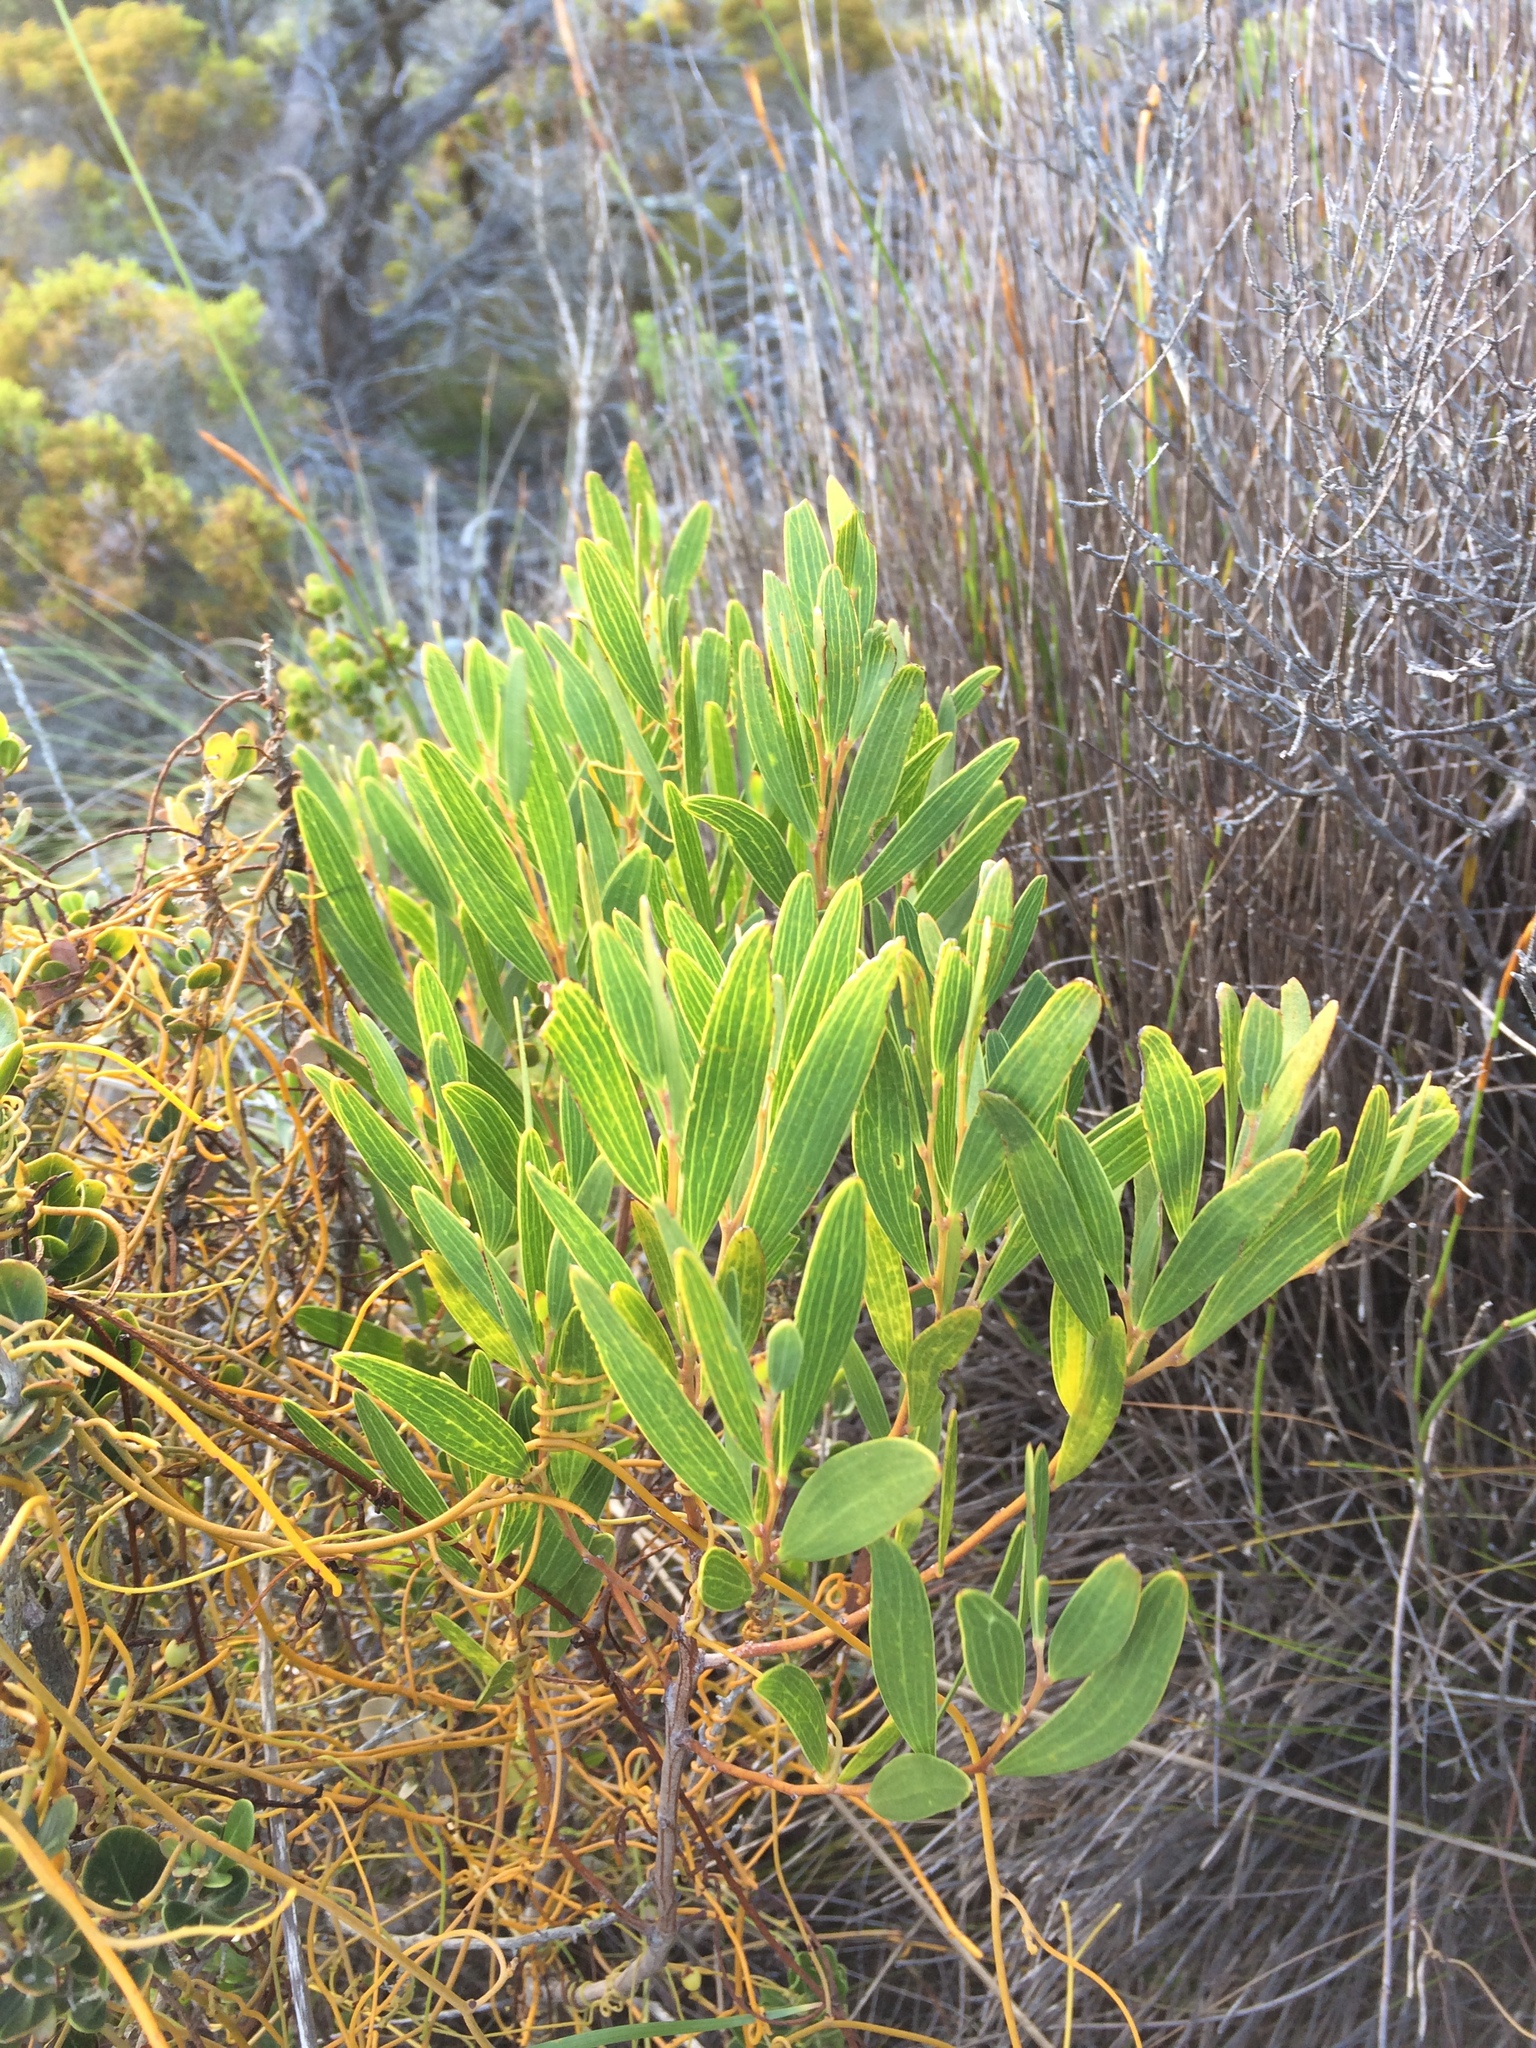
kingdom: Plantae
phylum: Tracheophyta
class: Magnoliopsida
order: Fabales
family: Fabaceae
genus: Acacia
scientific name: Acacia cyclops
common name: Coastal wattle
